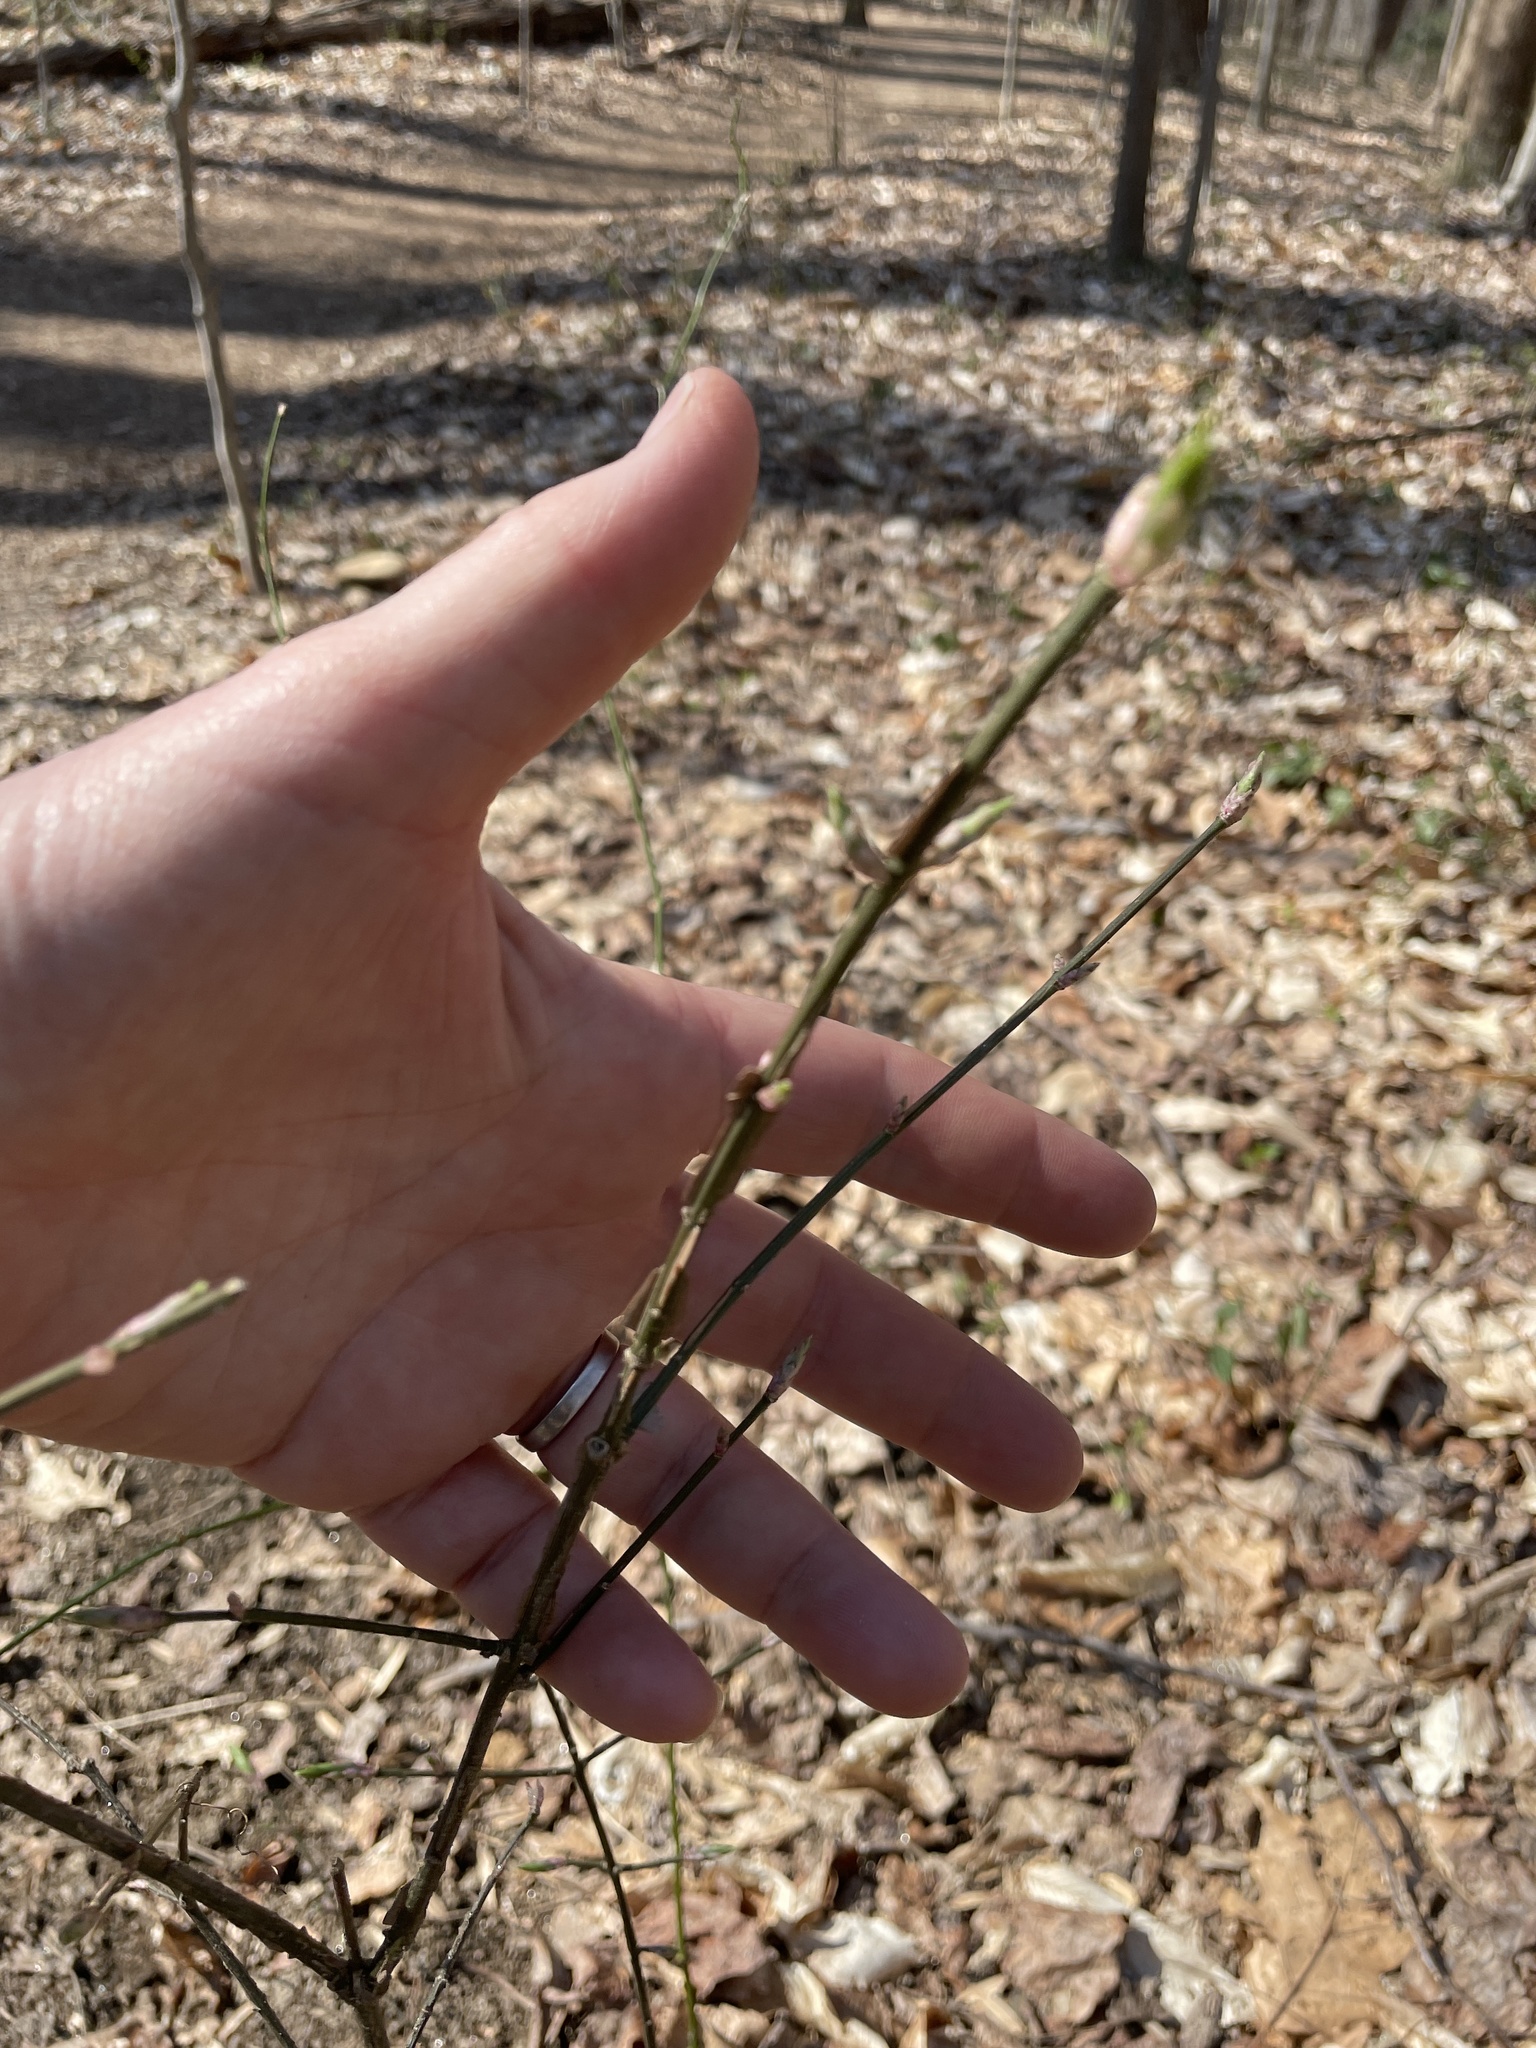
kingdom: Plantae
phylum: Tracheophyta
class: Magnoliopsida
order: Celastrales
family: Celastraceae
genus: Euonymus
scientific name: Euonymus alatus
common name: Winged euonymus
